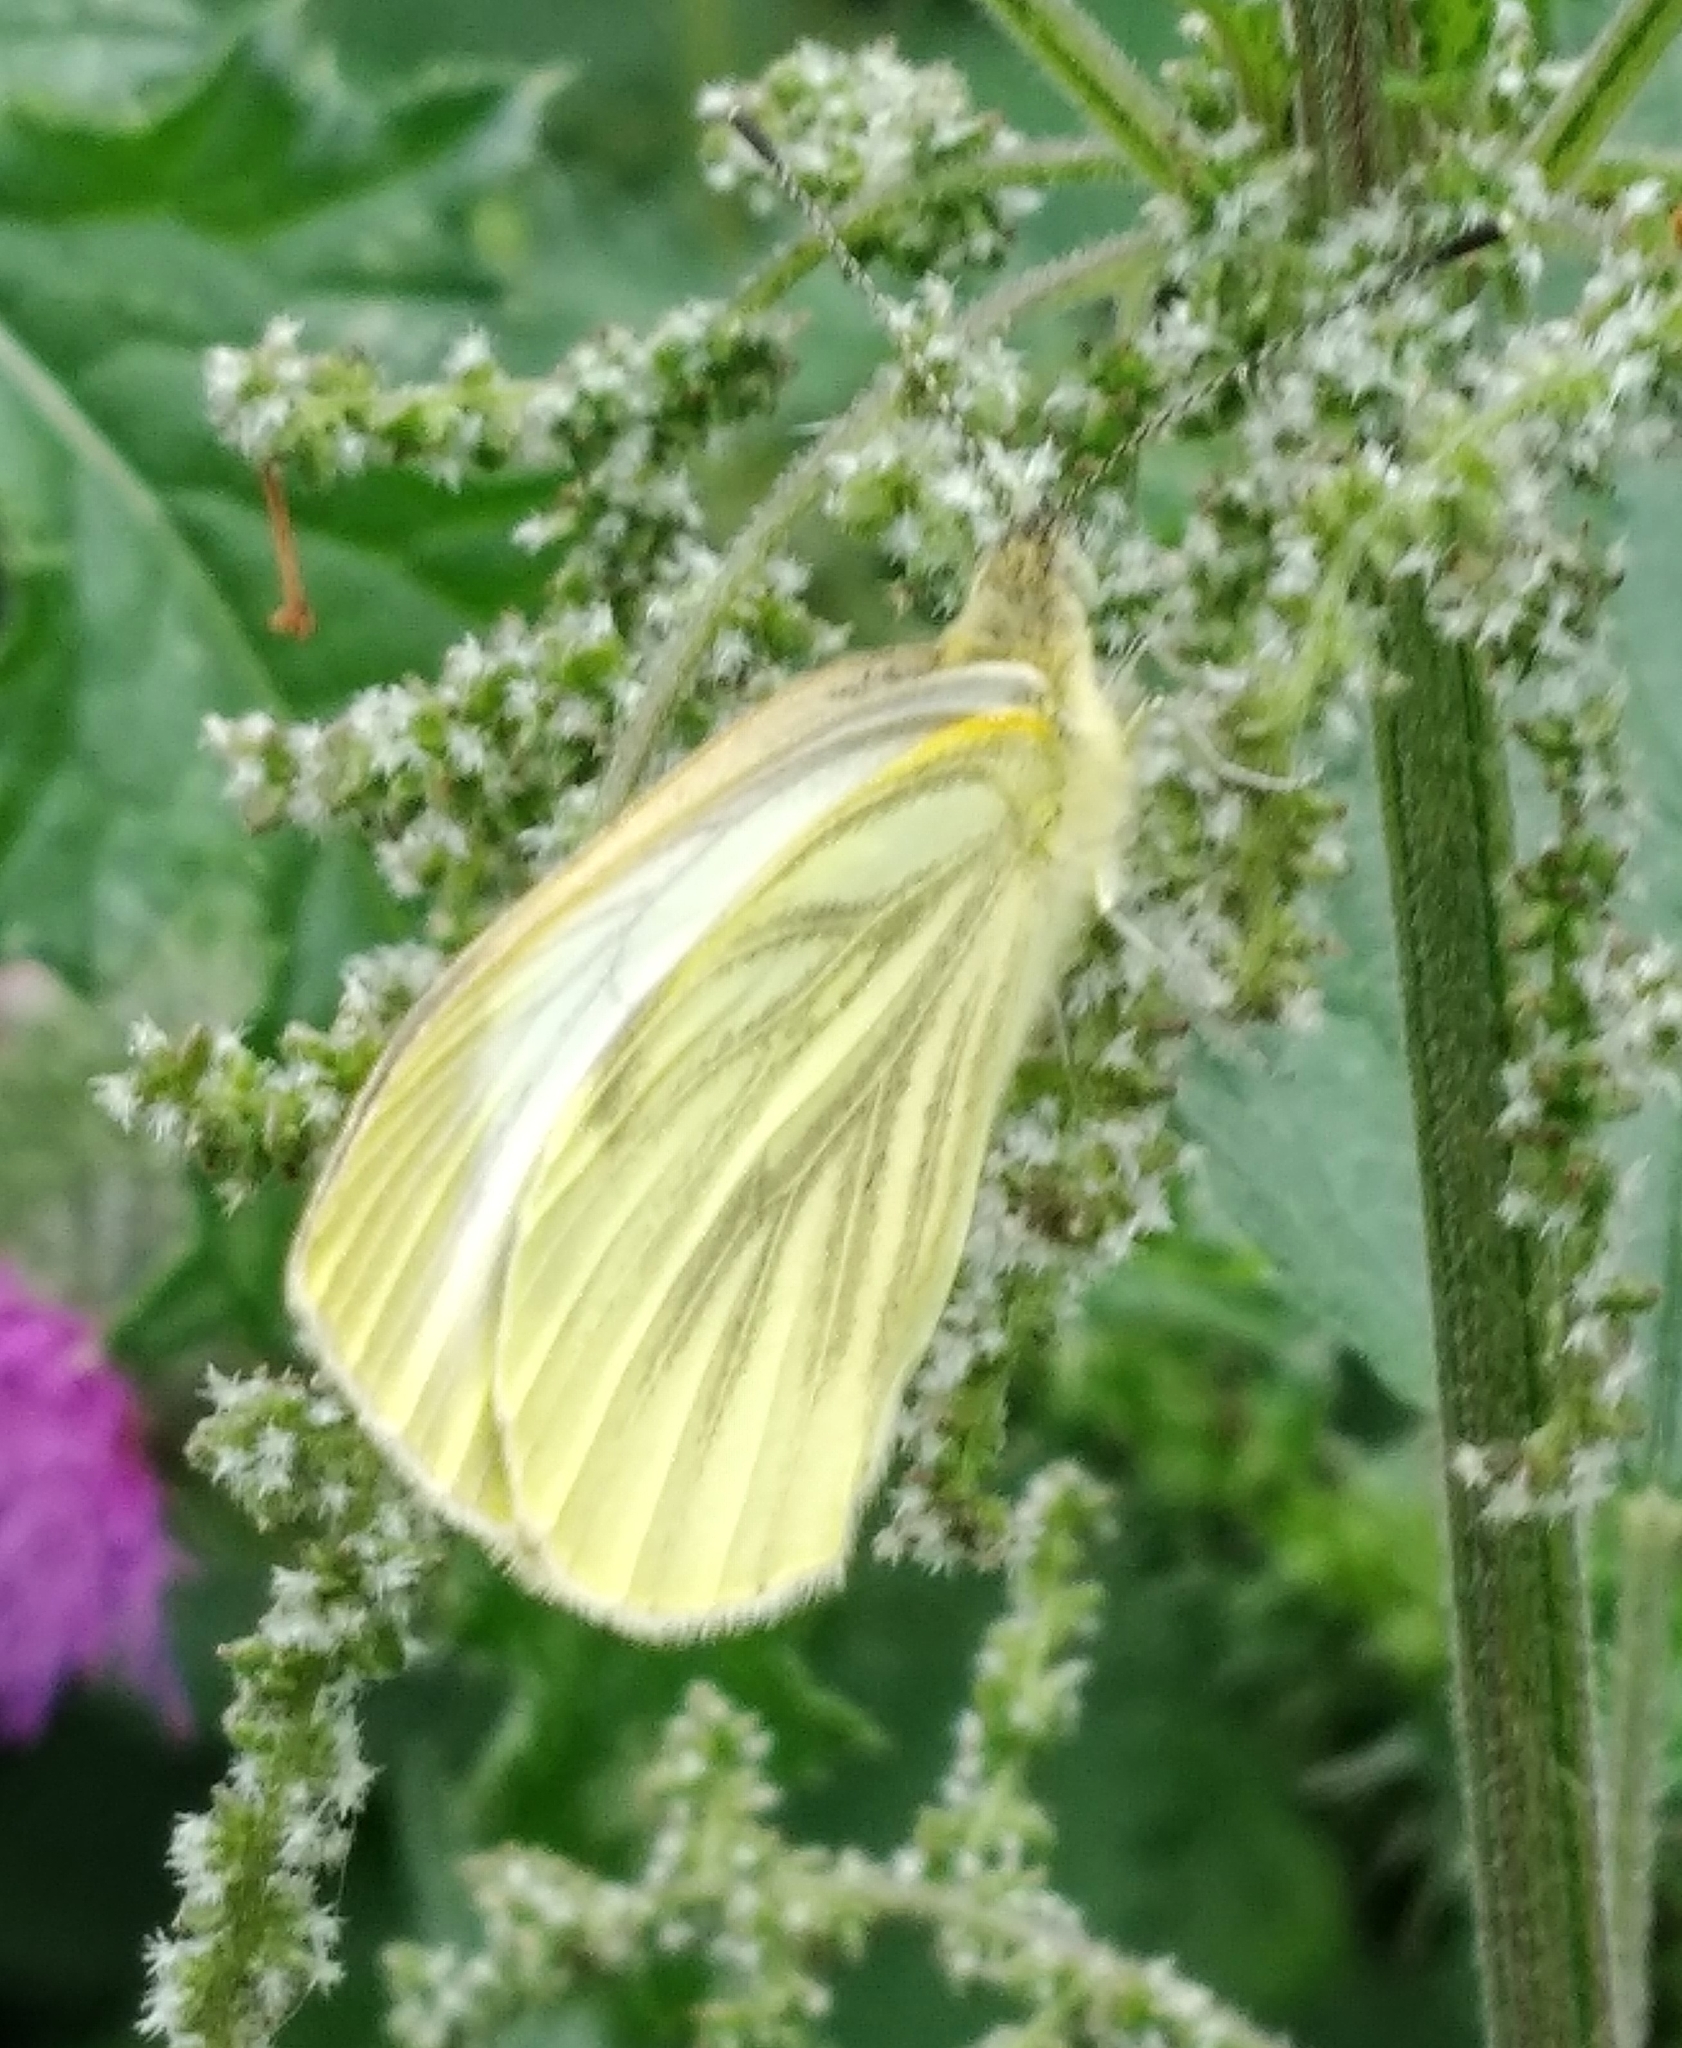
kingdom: Animalia
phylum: Arthropoda
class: Insecta
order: Lepidoptera
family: Pieridae
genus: Pieris
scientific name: Pieris napi
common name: Green-veined white
